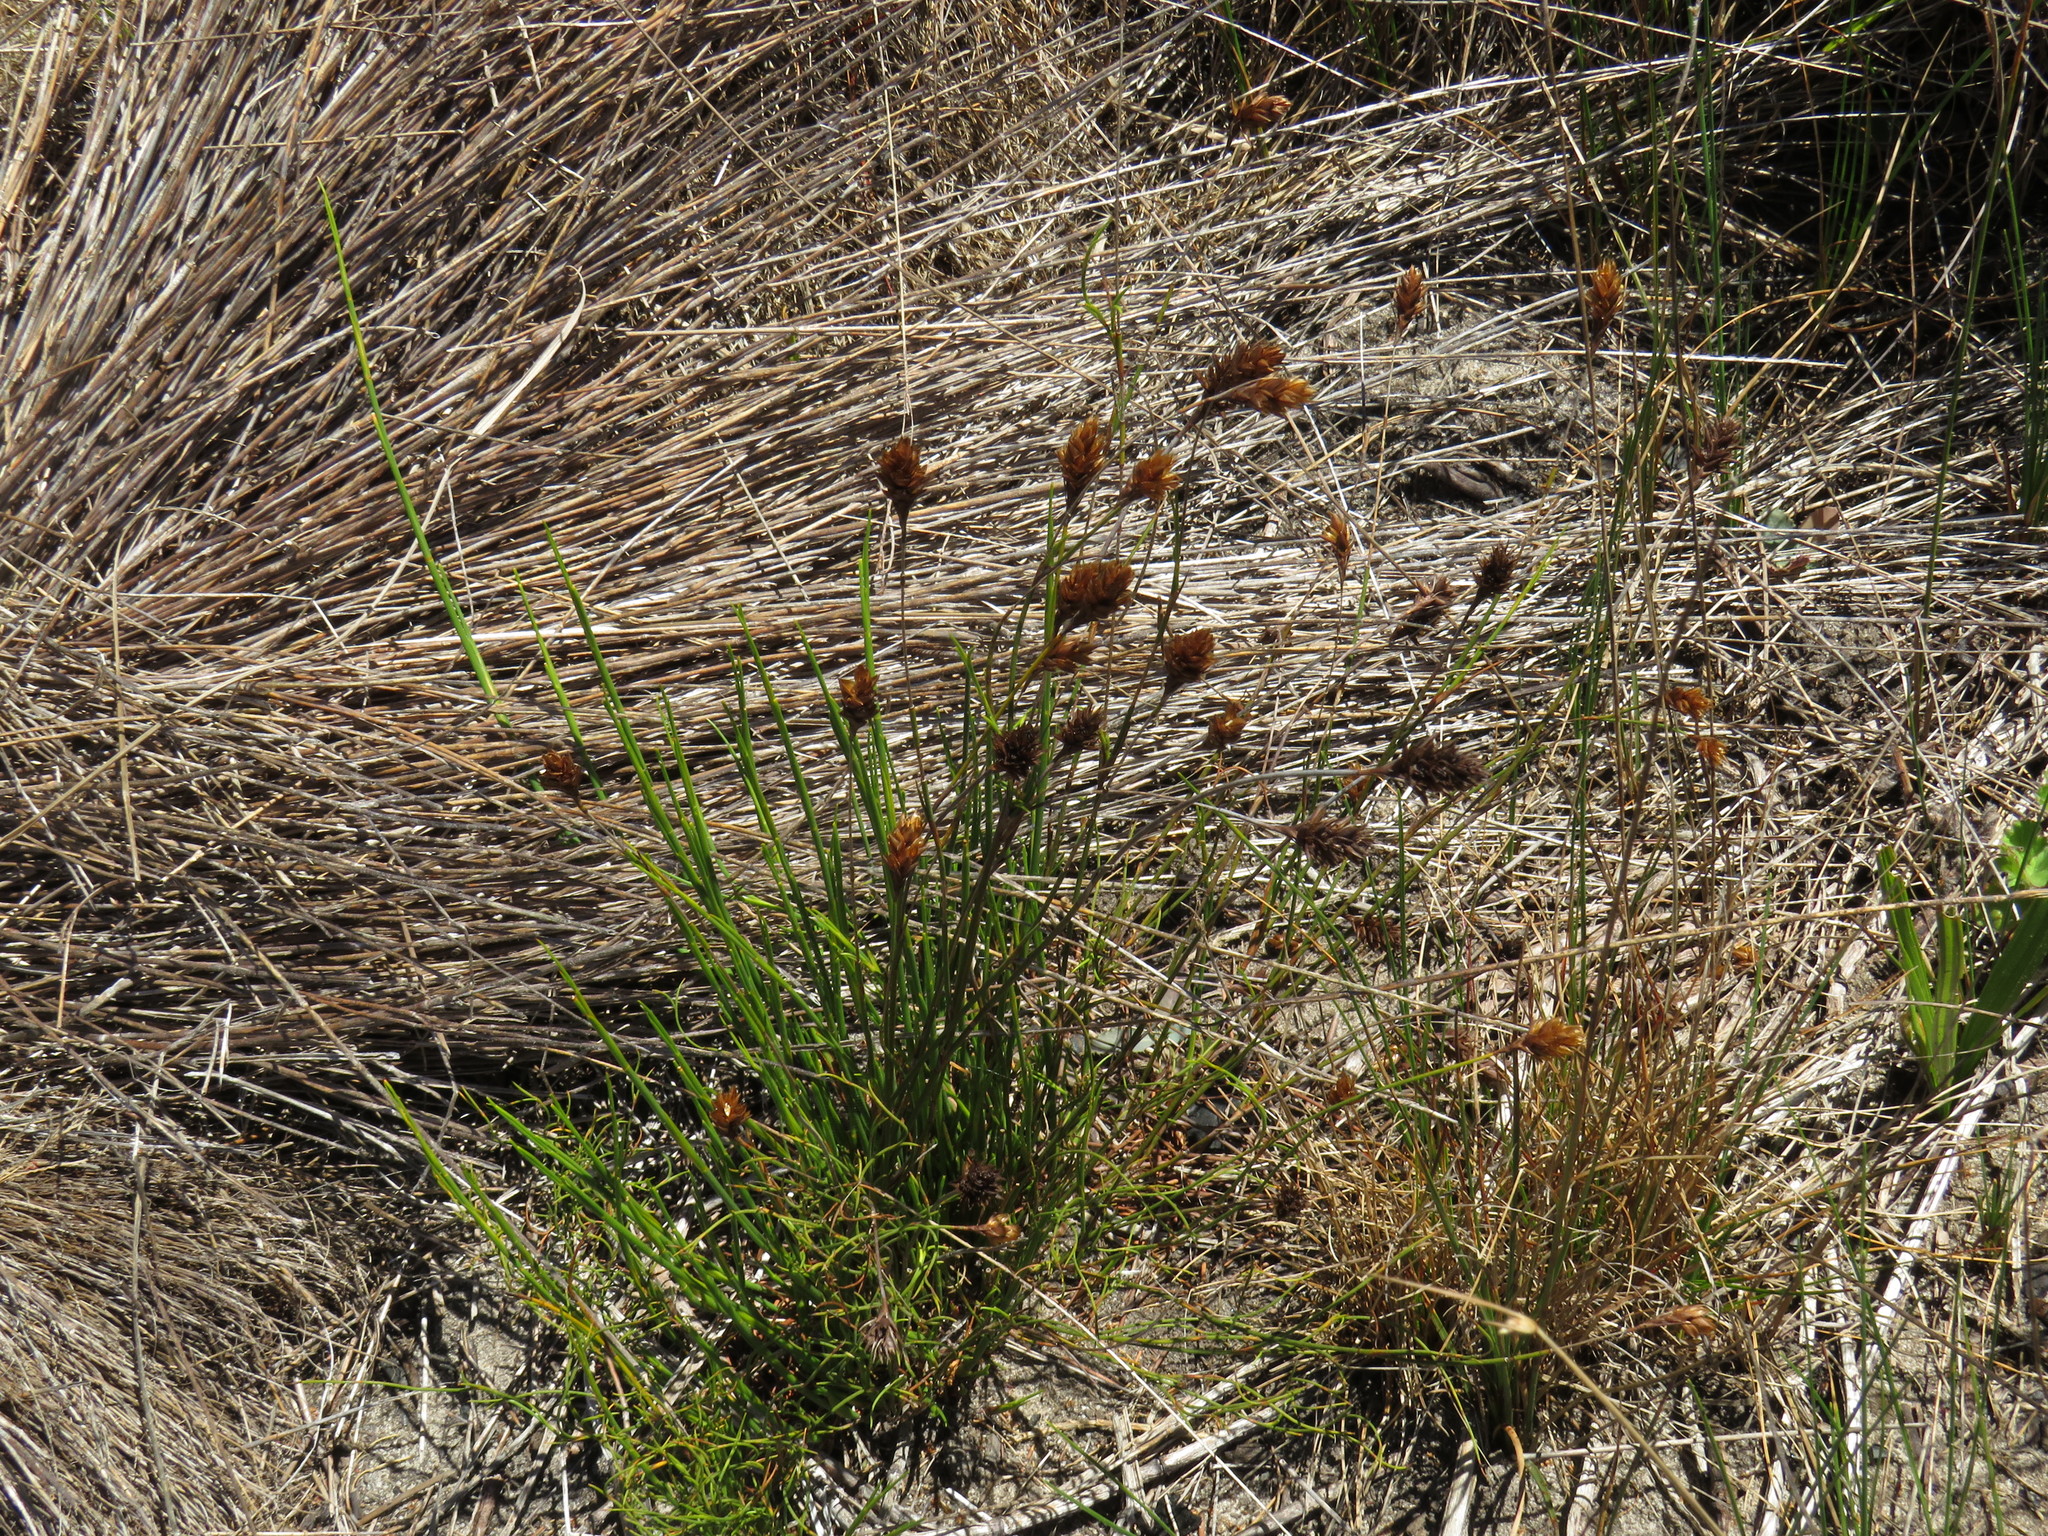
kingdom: Plantae
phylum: Tracheophyta
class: Liliopsida
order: Poales
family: Restionaceae
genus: Mastersiella
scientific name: Mastersiella digitata
